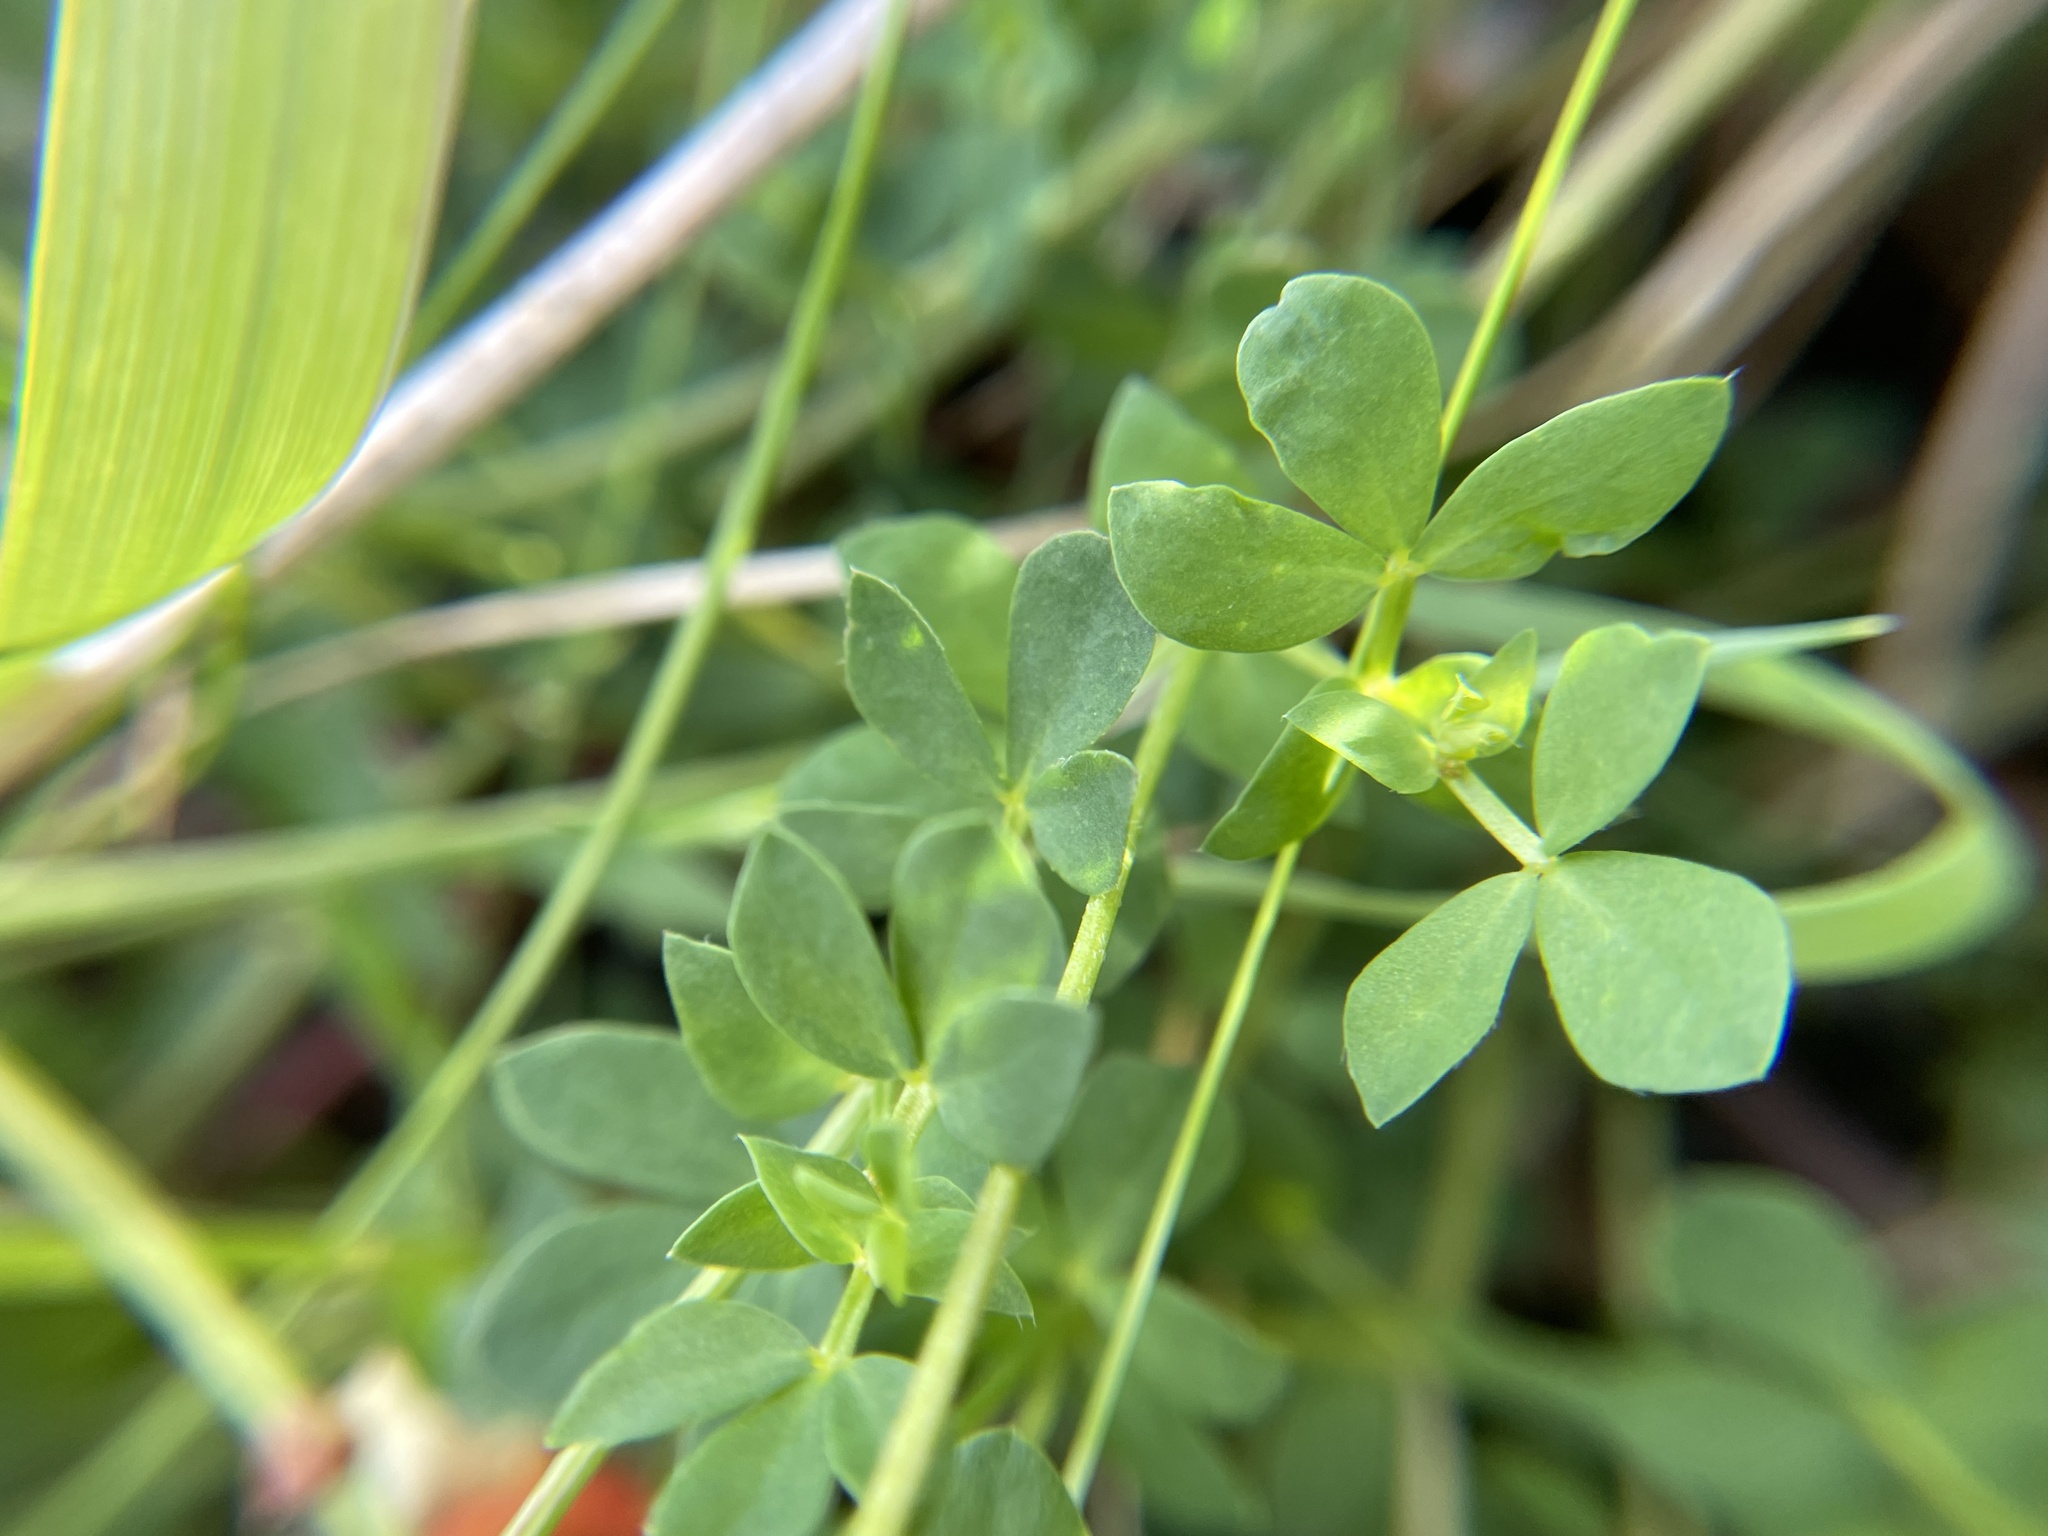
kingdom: Plantae
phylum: Tracheophyta
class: Magnoliopsida
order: Fabales
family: Fabaceae
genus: Lotus
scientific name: Lotus corniculatus
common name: Common bird's-foot-trefoil
